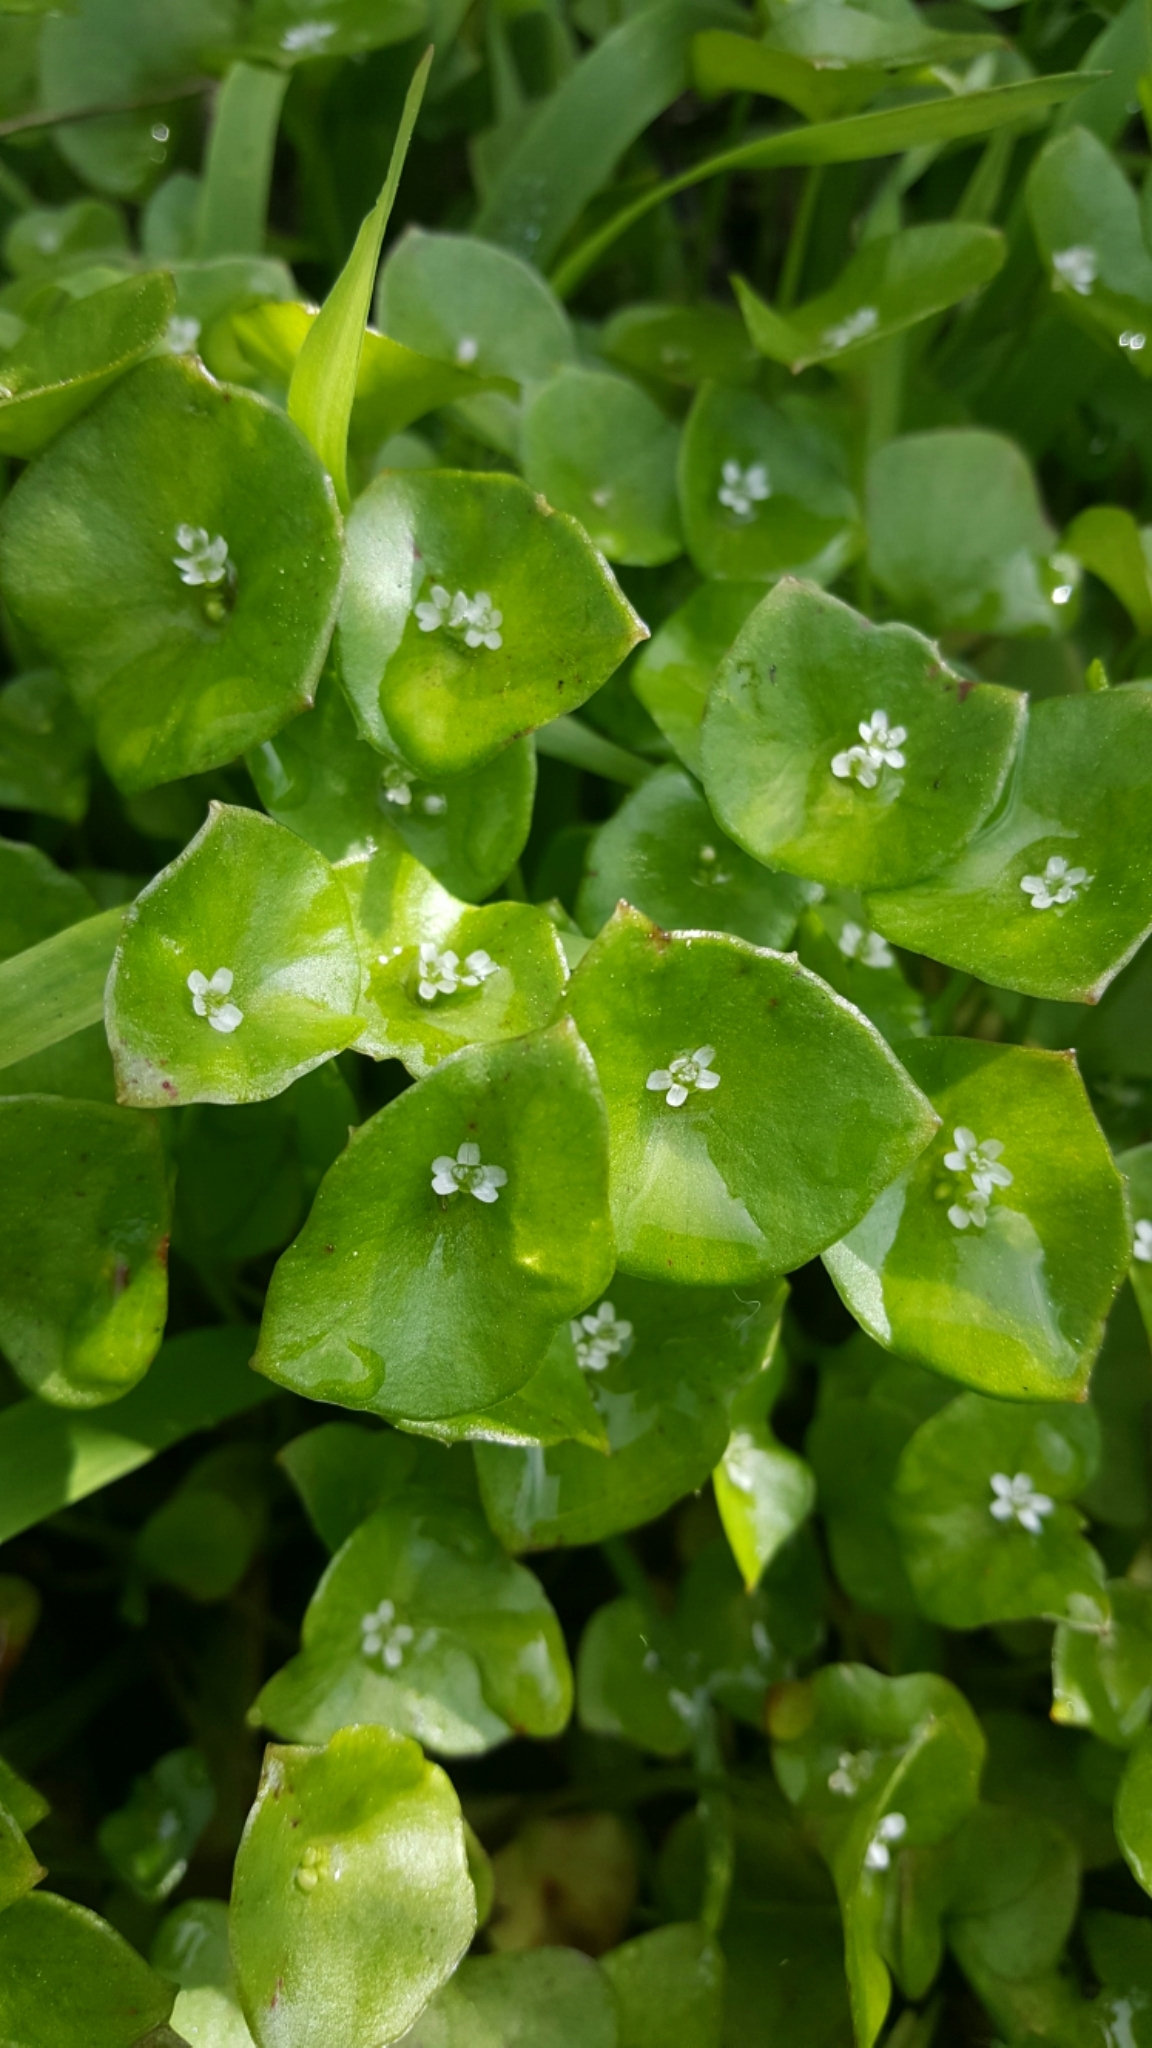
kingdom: Plantae
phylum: Tracheophyta
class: Magnoliopsida
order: Caryophyllales
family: Montiaceae
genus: Claytonia
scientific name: Claytonia perfoliata
